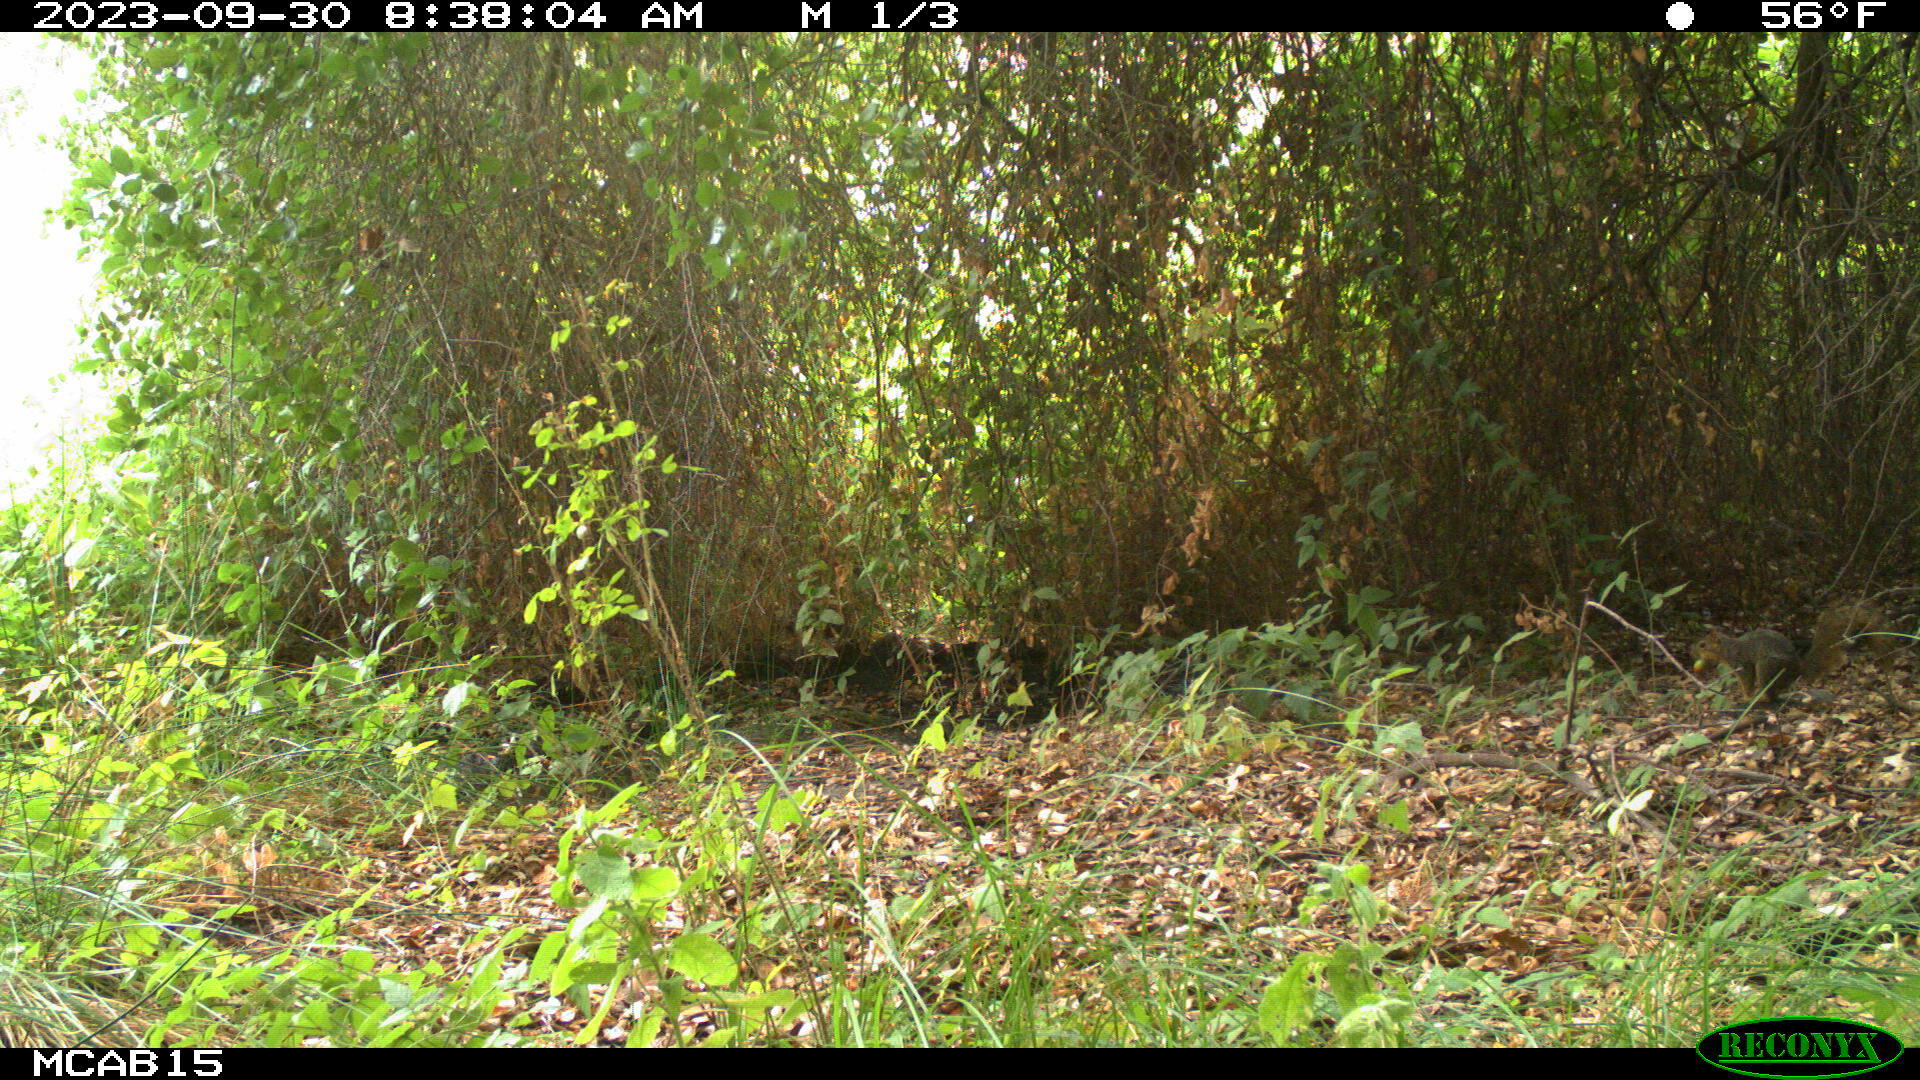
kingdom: Animalia
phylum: Chordata
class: Mammalia
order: Rodentia
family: Sciuridae
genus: Sciurus
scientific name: Sciurus niger
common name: Fox squirrel
